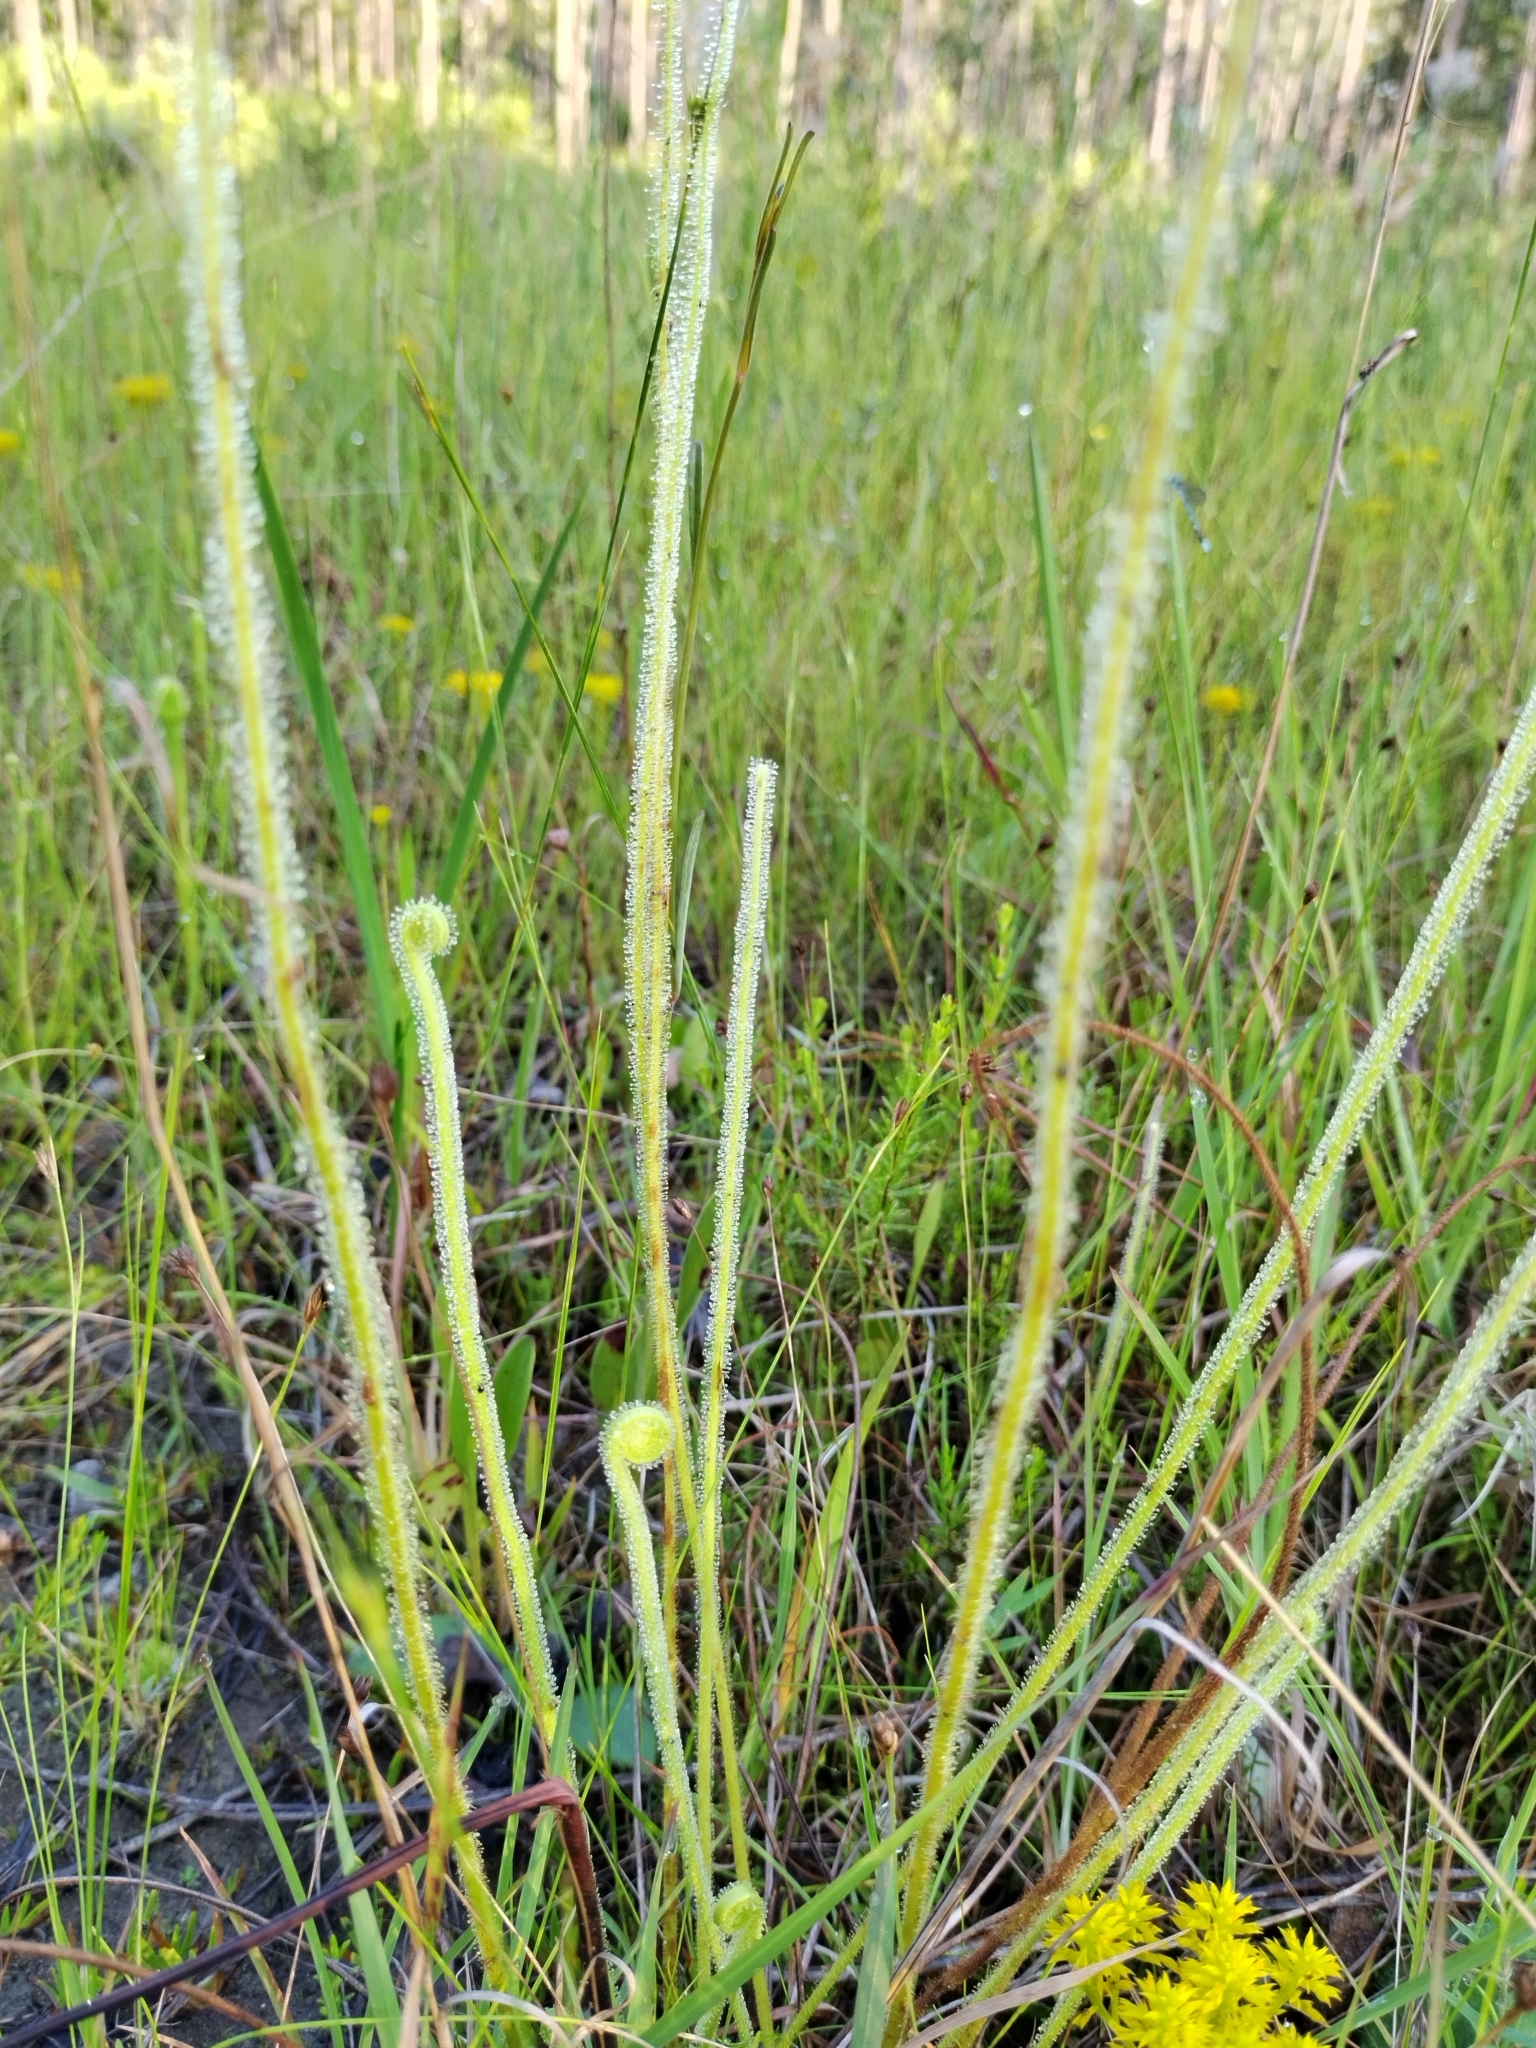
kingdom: Plantae
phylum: Tracheophyta
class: Magnoliopsida
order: Caryophyllales
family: Droseraceae
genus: Drosera
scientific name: Drosera filiformis
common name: Dew-thread
